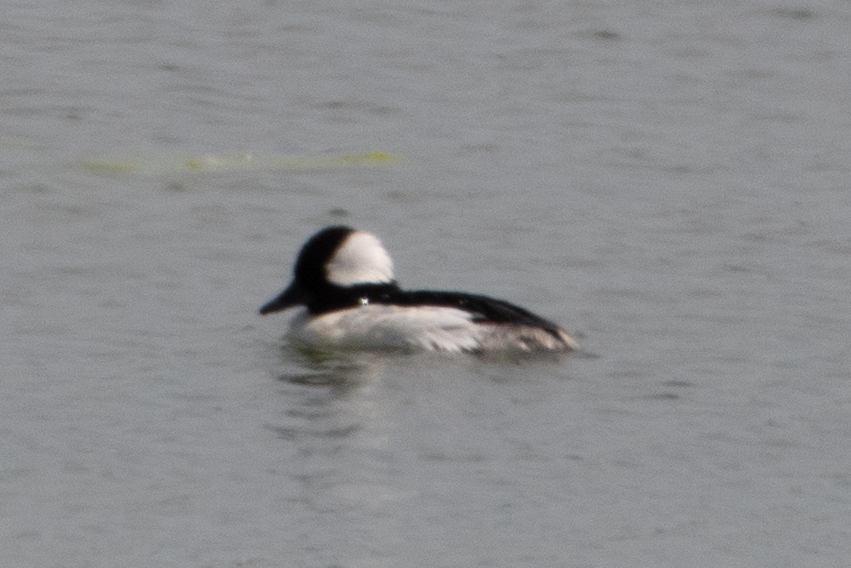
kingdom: Animalia
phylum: Chordata
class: Aves
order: Anseriformes
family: Anatidae
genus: Bucephala
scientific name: Bucephala albeola
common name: Bufflehead
